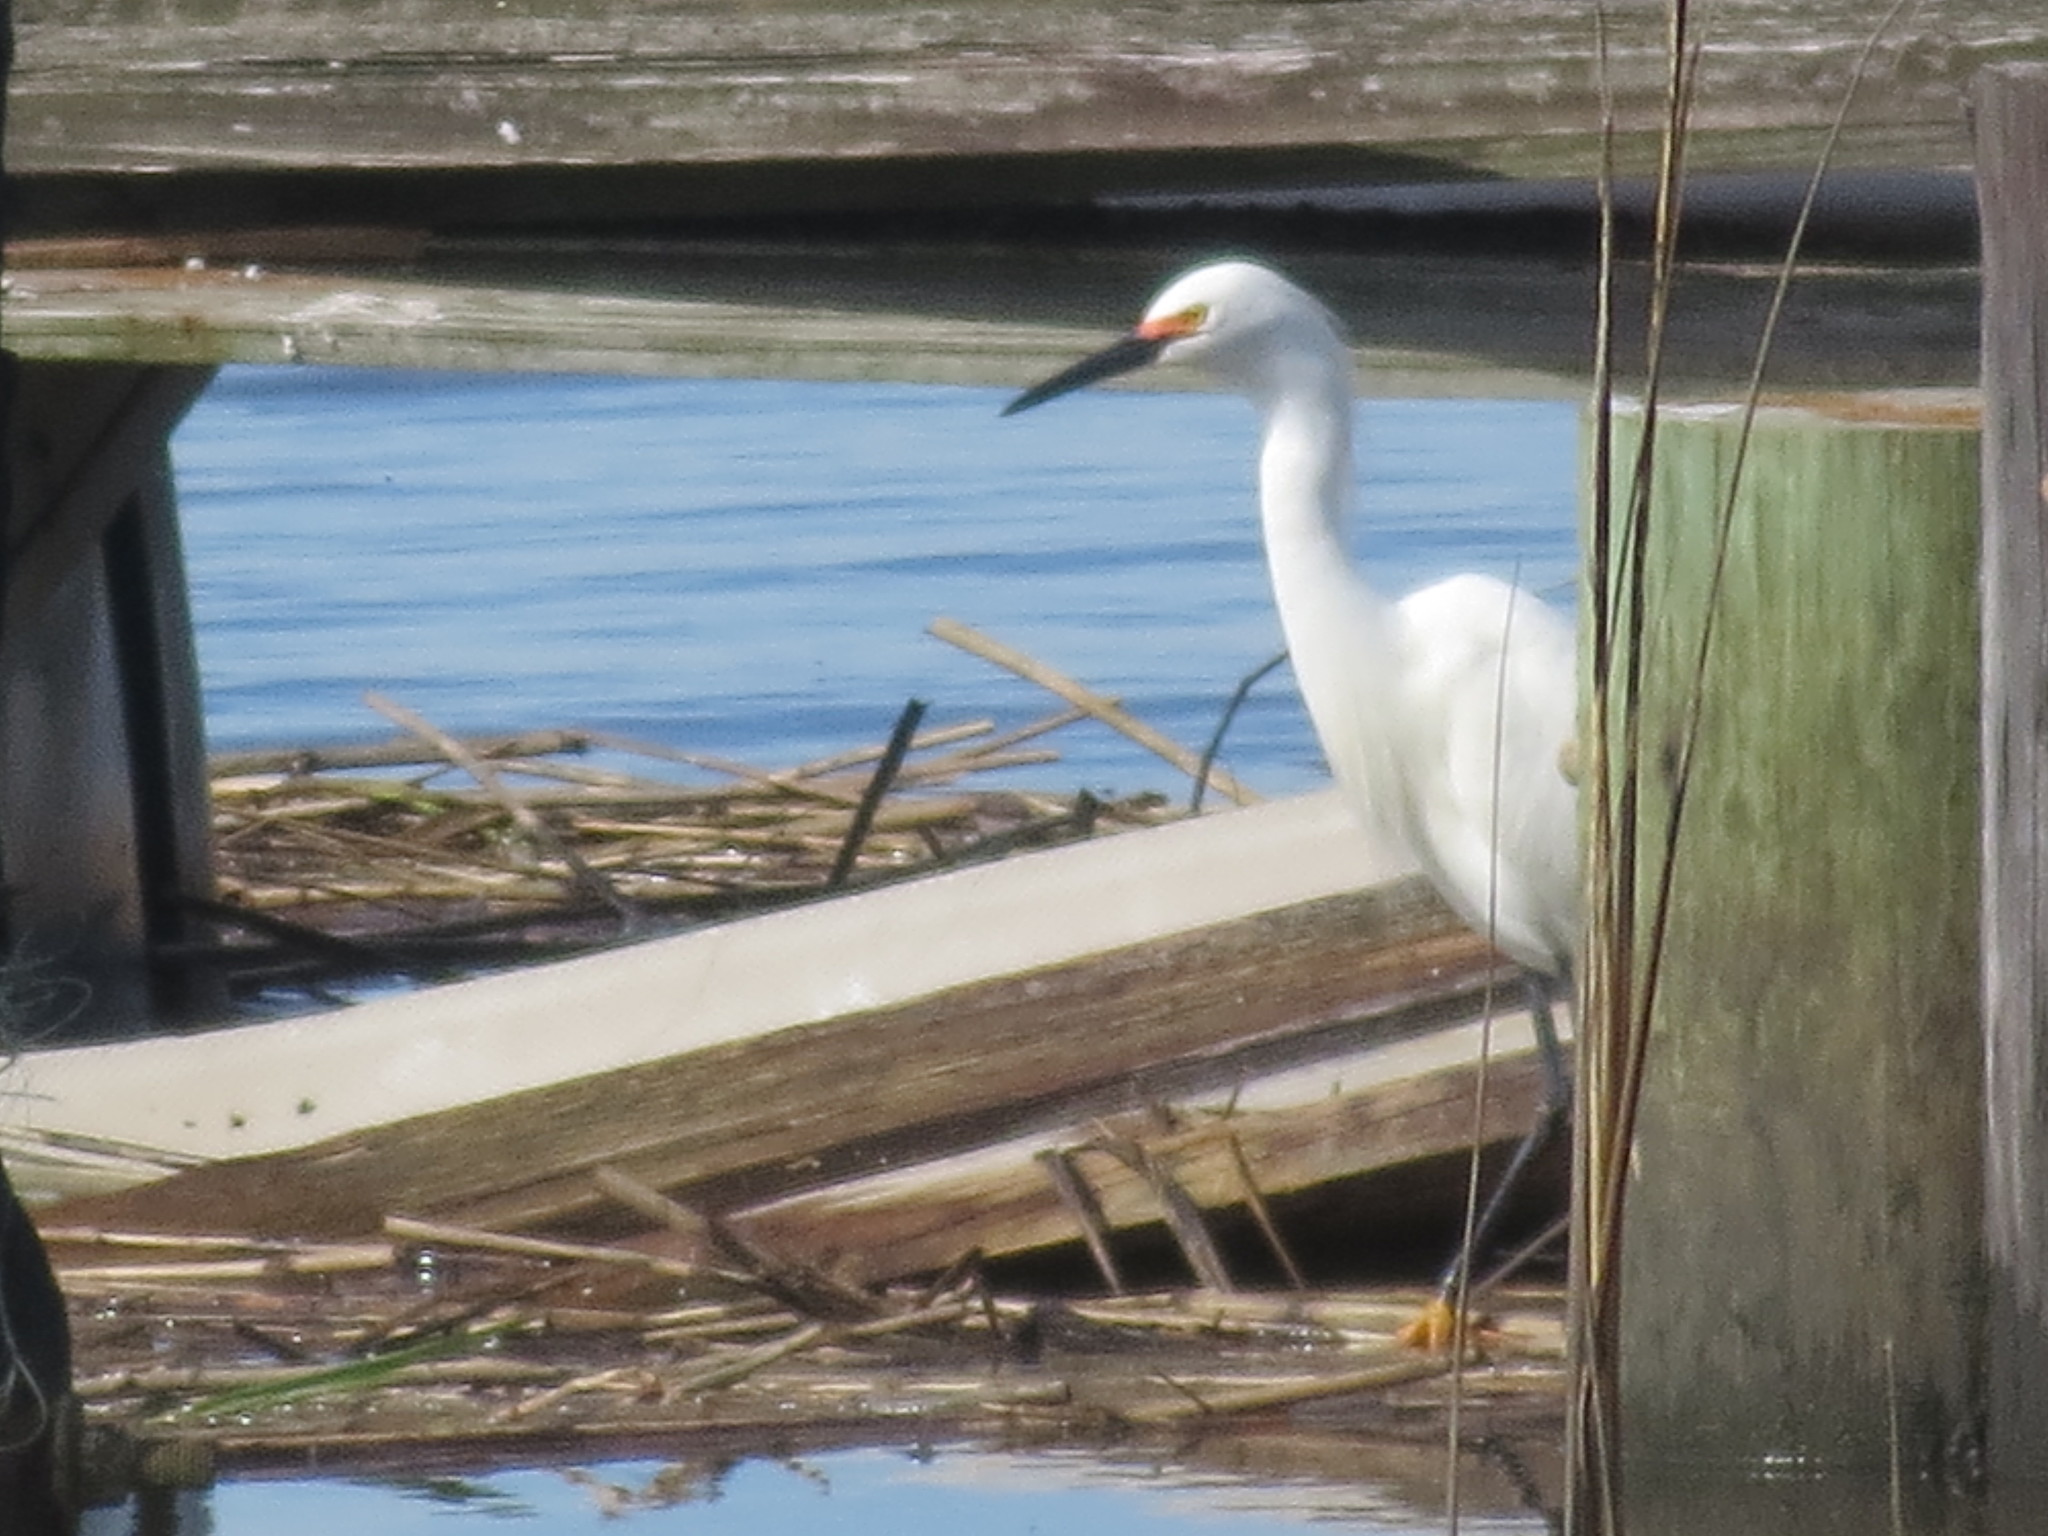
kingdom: Animalia
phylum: Chordata
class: Aves
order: Pelecaniformes
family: Ardeidae
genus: Egretta
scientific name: Egretta thula
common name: Snowy egret
